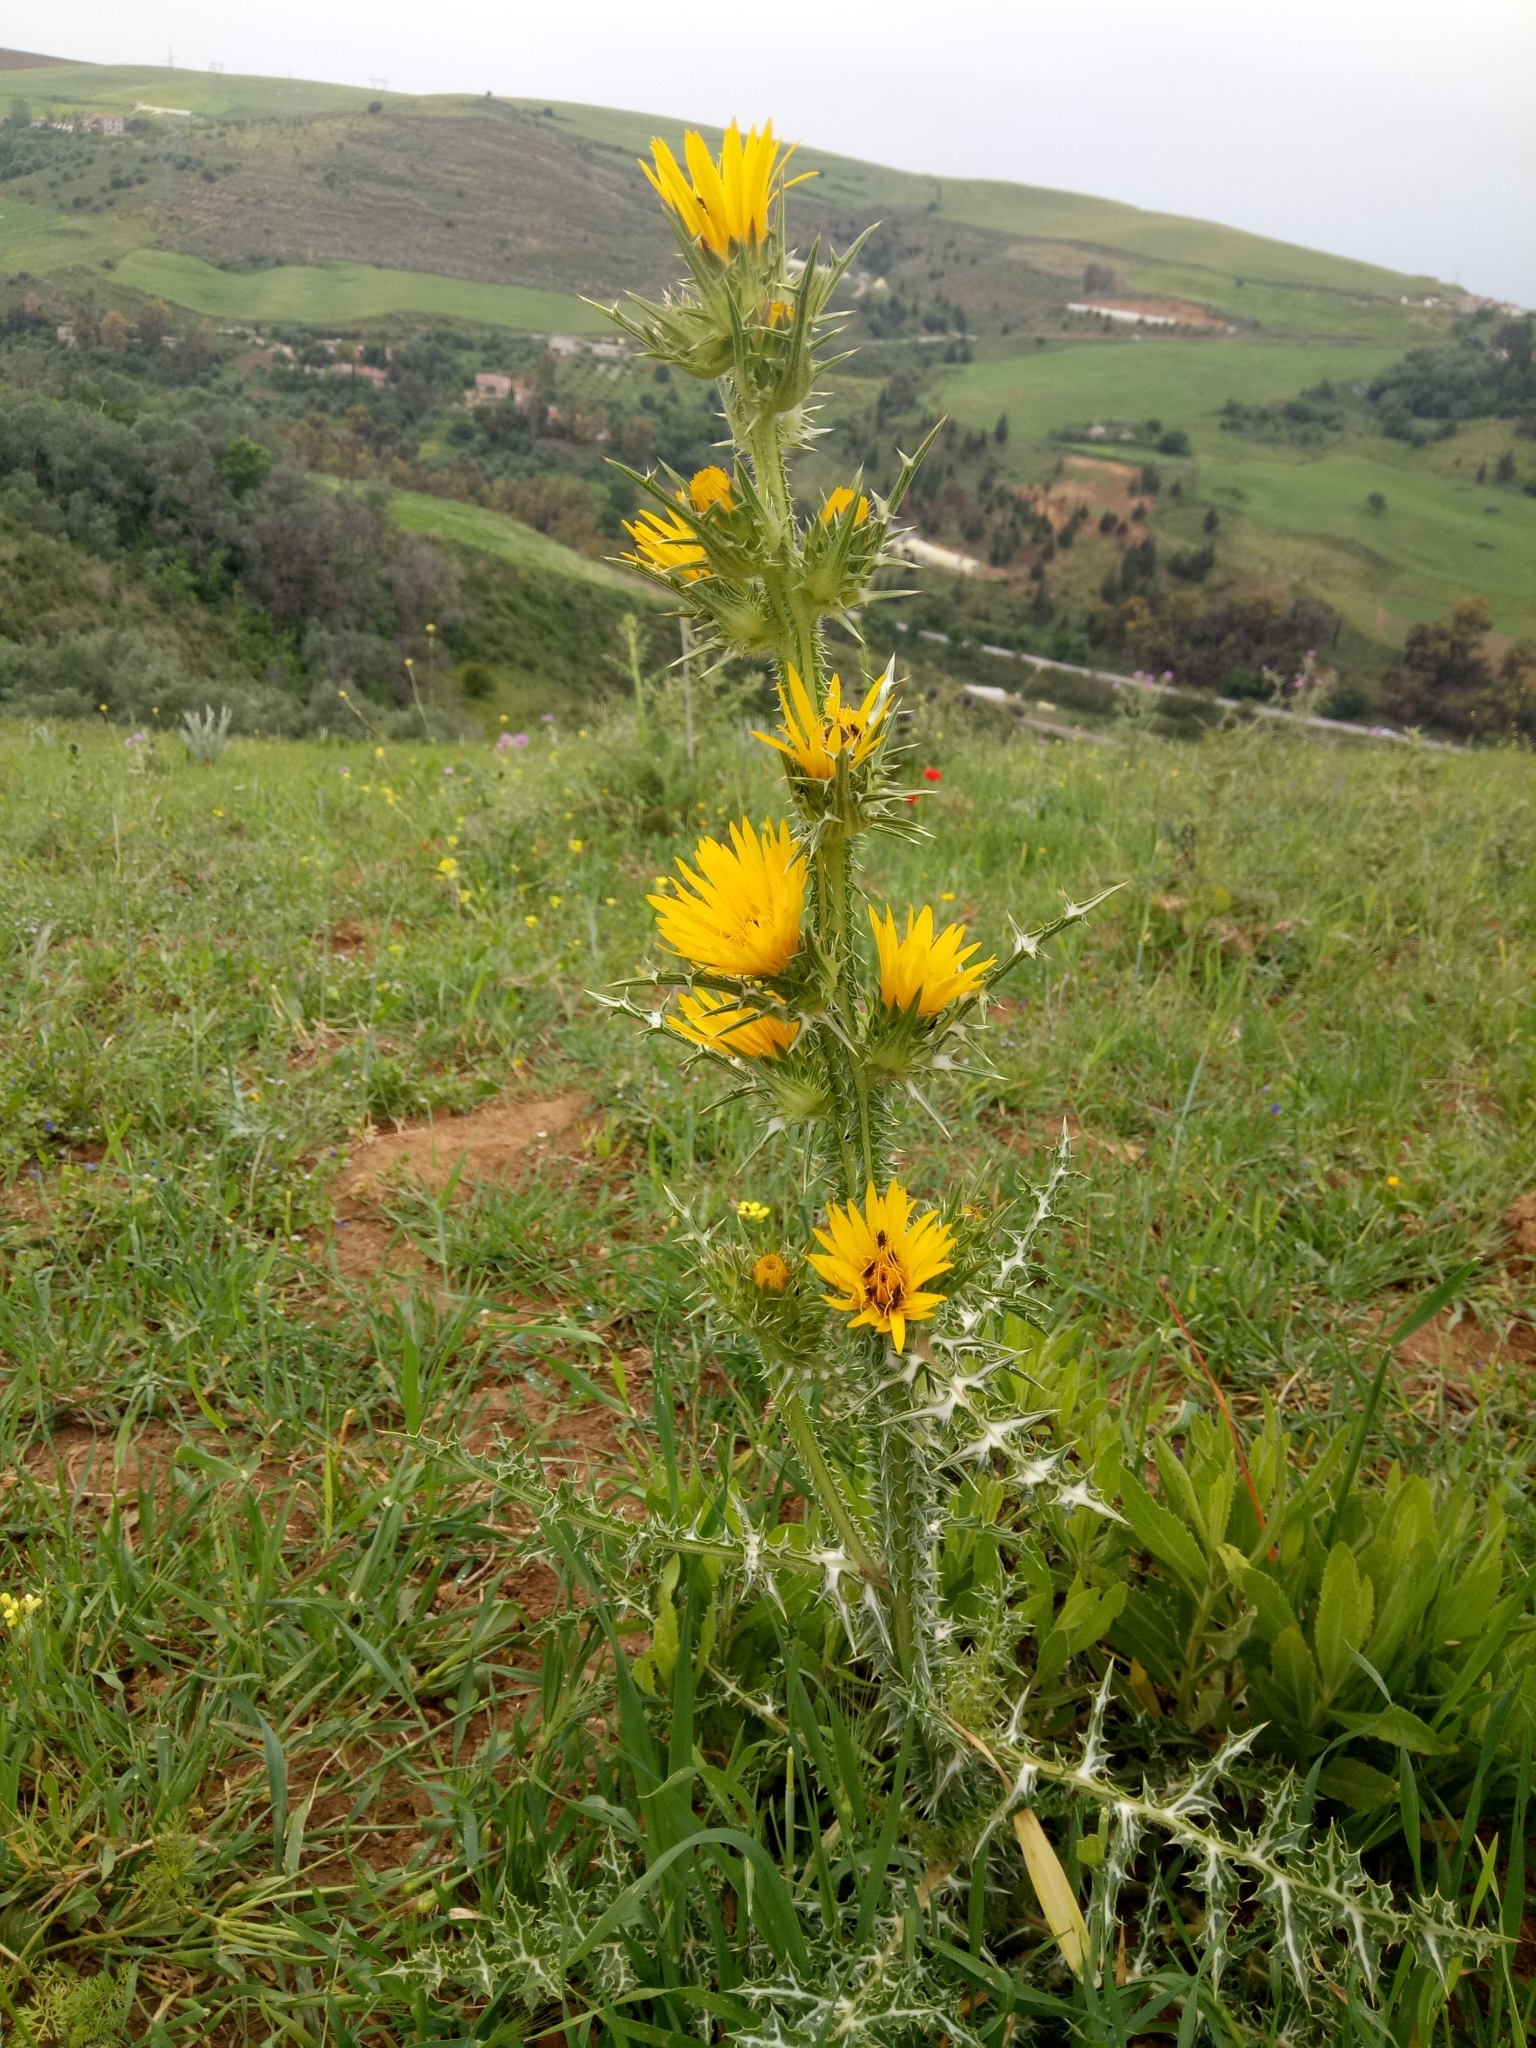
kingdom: Plantae
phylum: Tracheophyta
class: Magnoliopsida
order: Asterales
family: Asteraceae
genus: Scolymus
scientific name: Scolymus hispanicus
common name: Golden thistle
